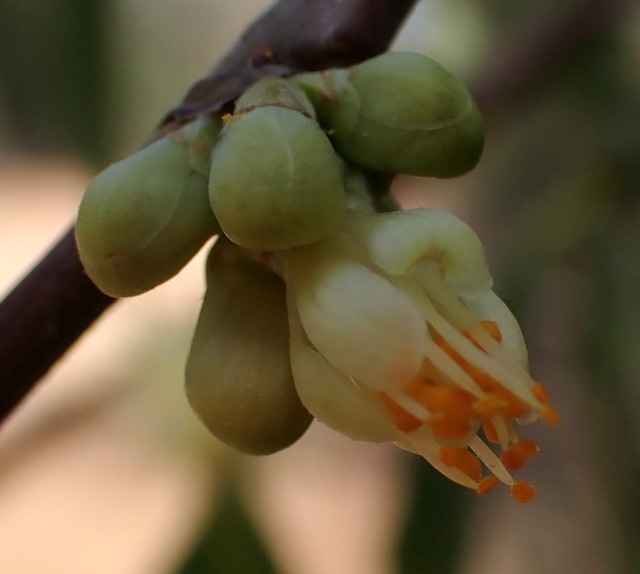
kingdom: Plantae
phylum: Tracheophyta
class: Magnoliopsida
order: Ericales
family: Symplocaceae
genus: Symplocos
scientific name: Symplocos tinctoria
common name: Horse-sugar
